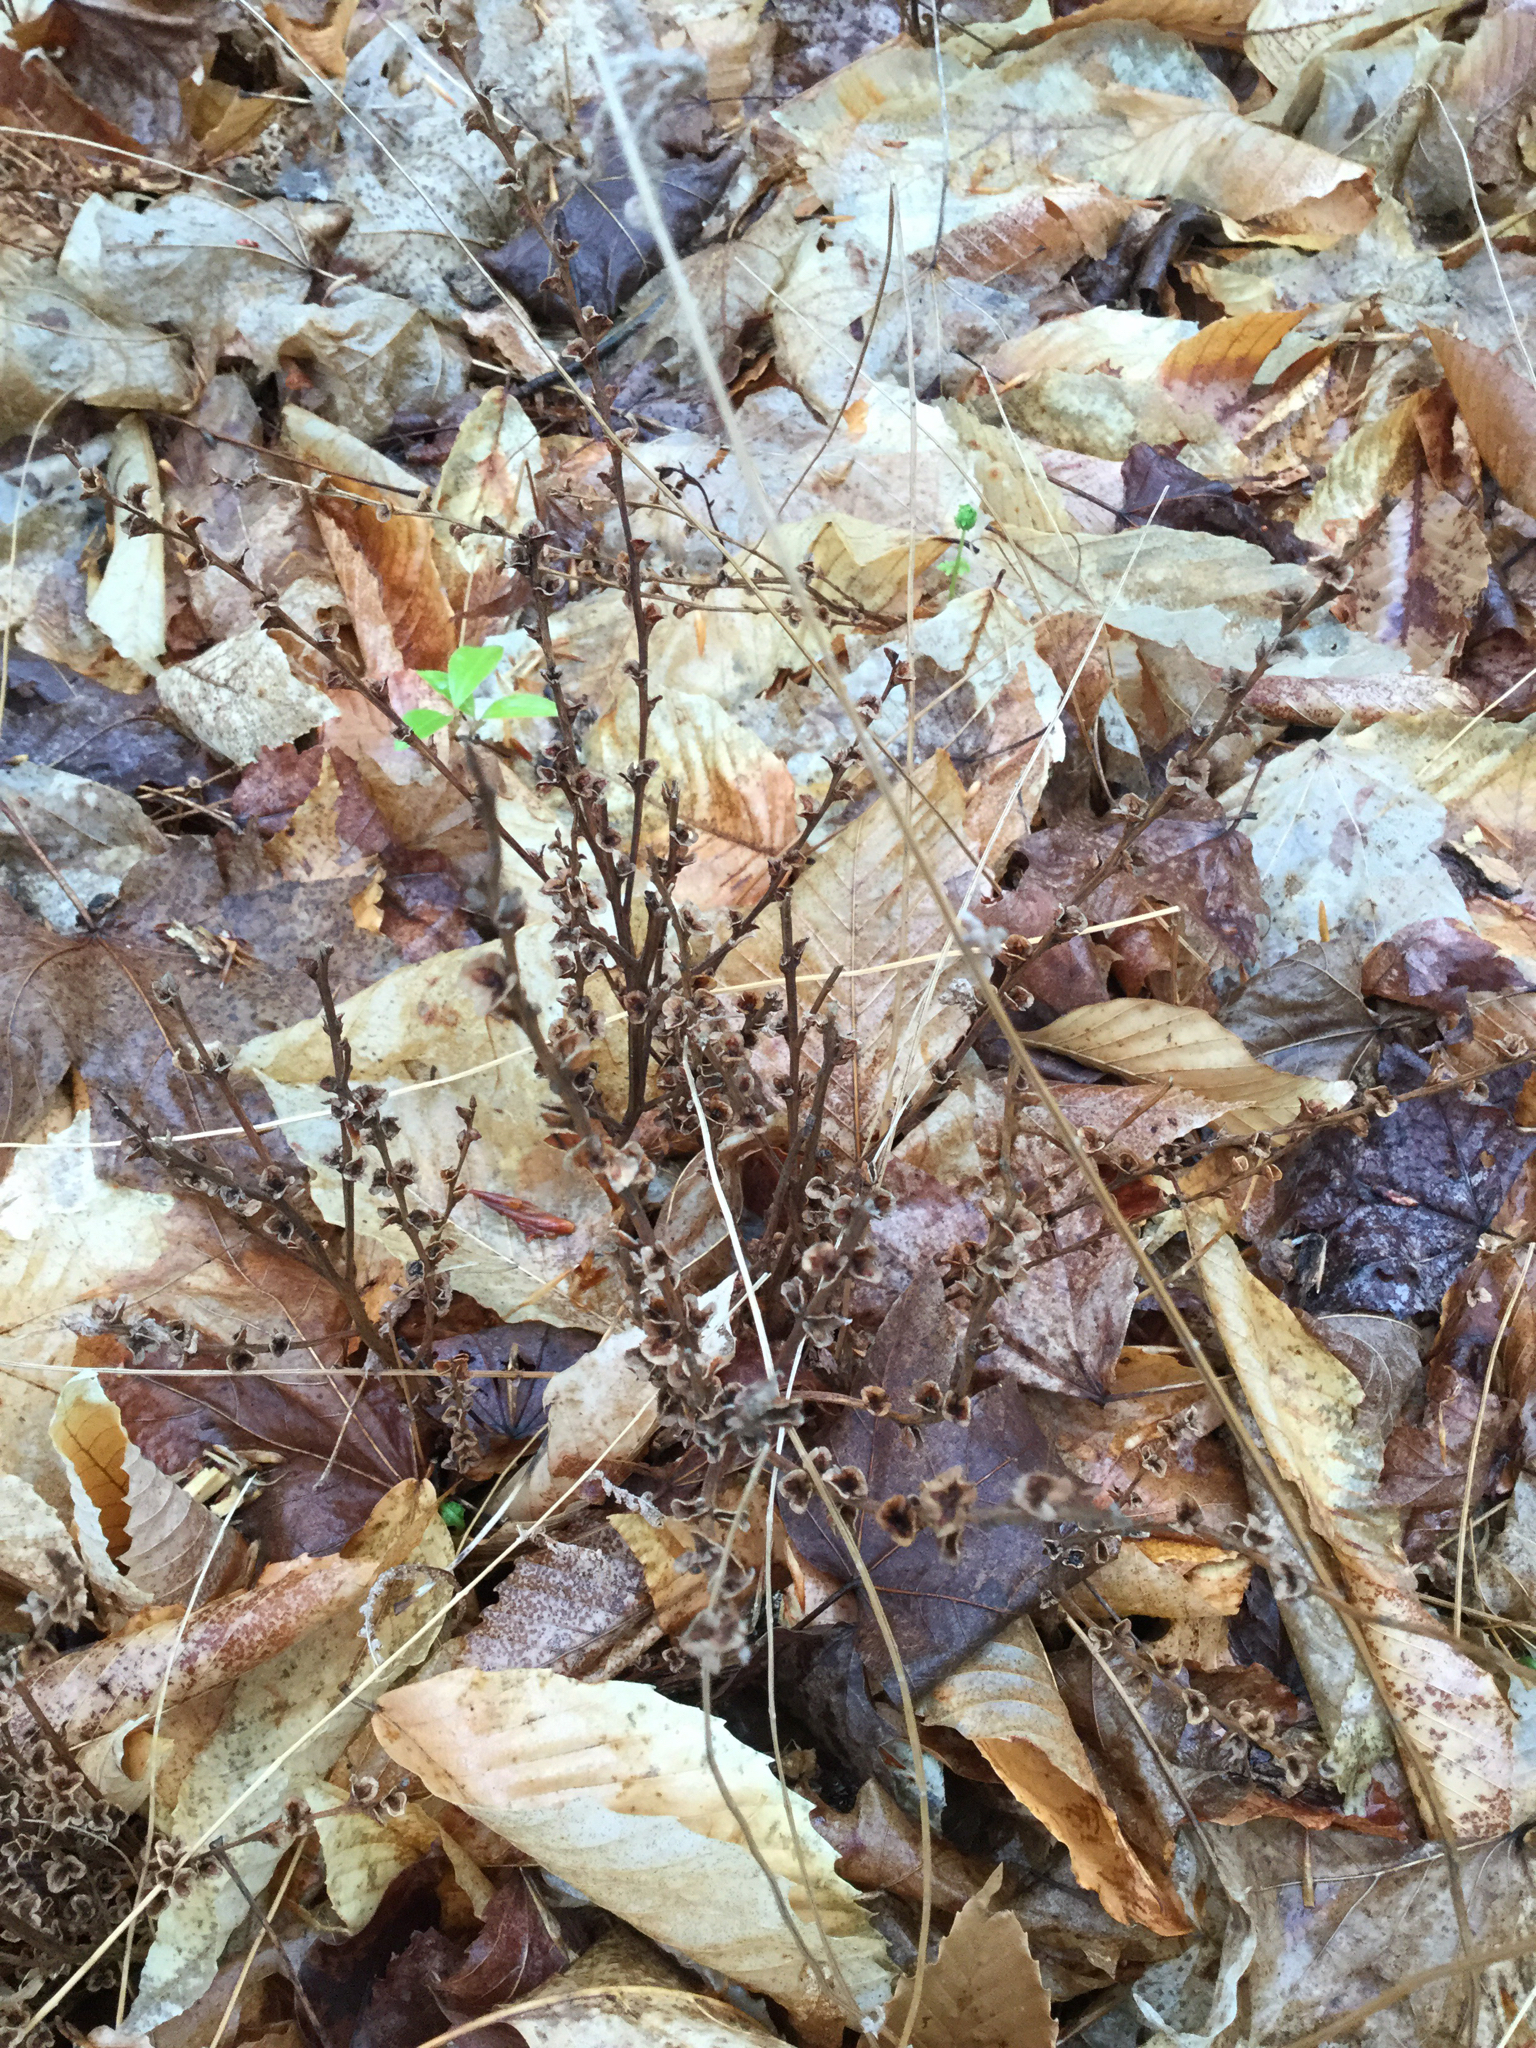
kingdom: Plantae
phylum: Tracheophyta
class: Magnoliopsida
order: Lamiales
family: Orobanchaceae
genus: Epifagus
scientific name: Epifagus virginiana
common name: Beechdrops
